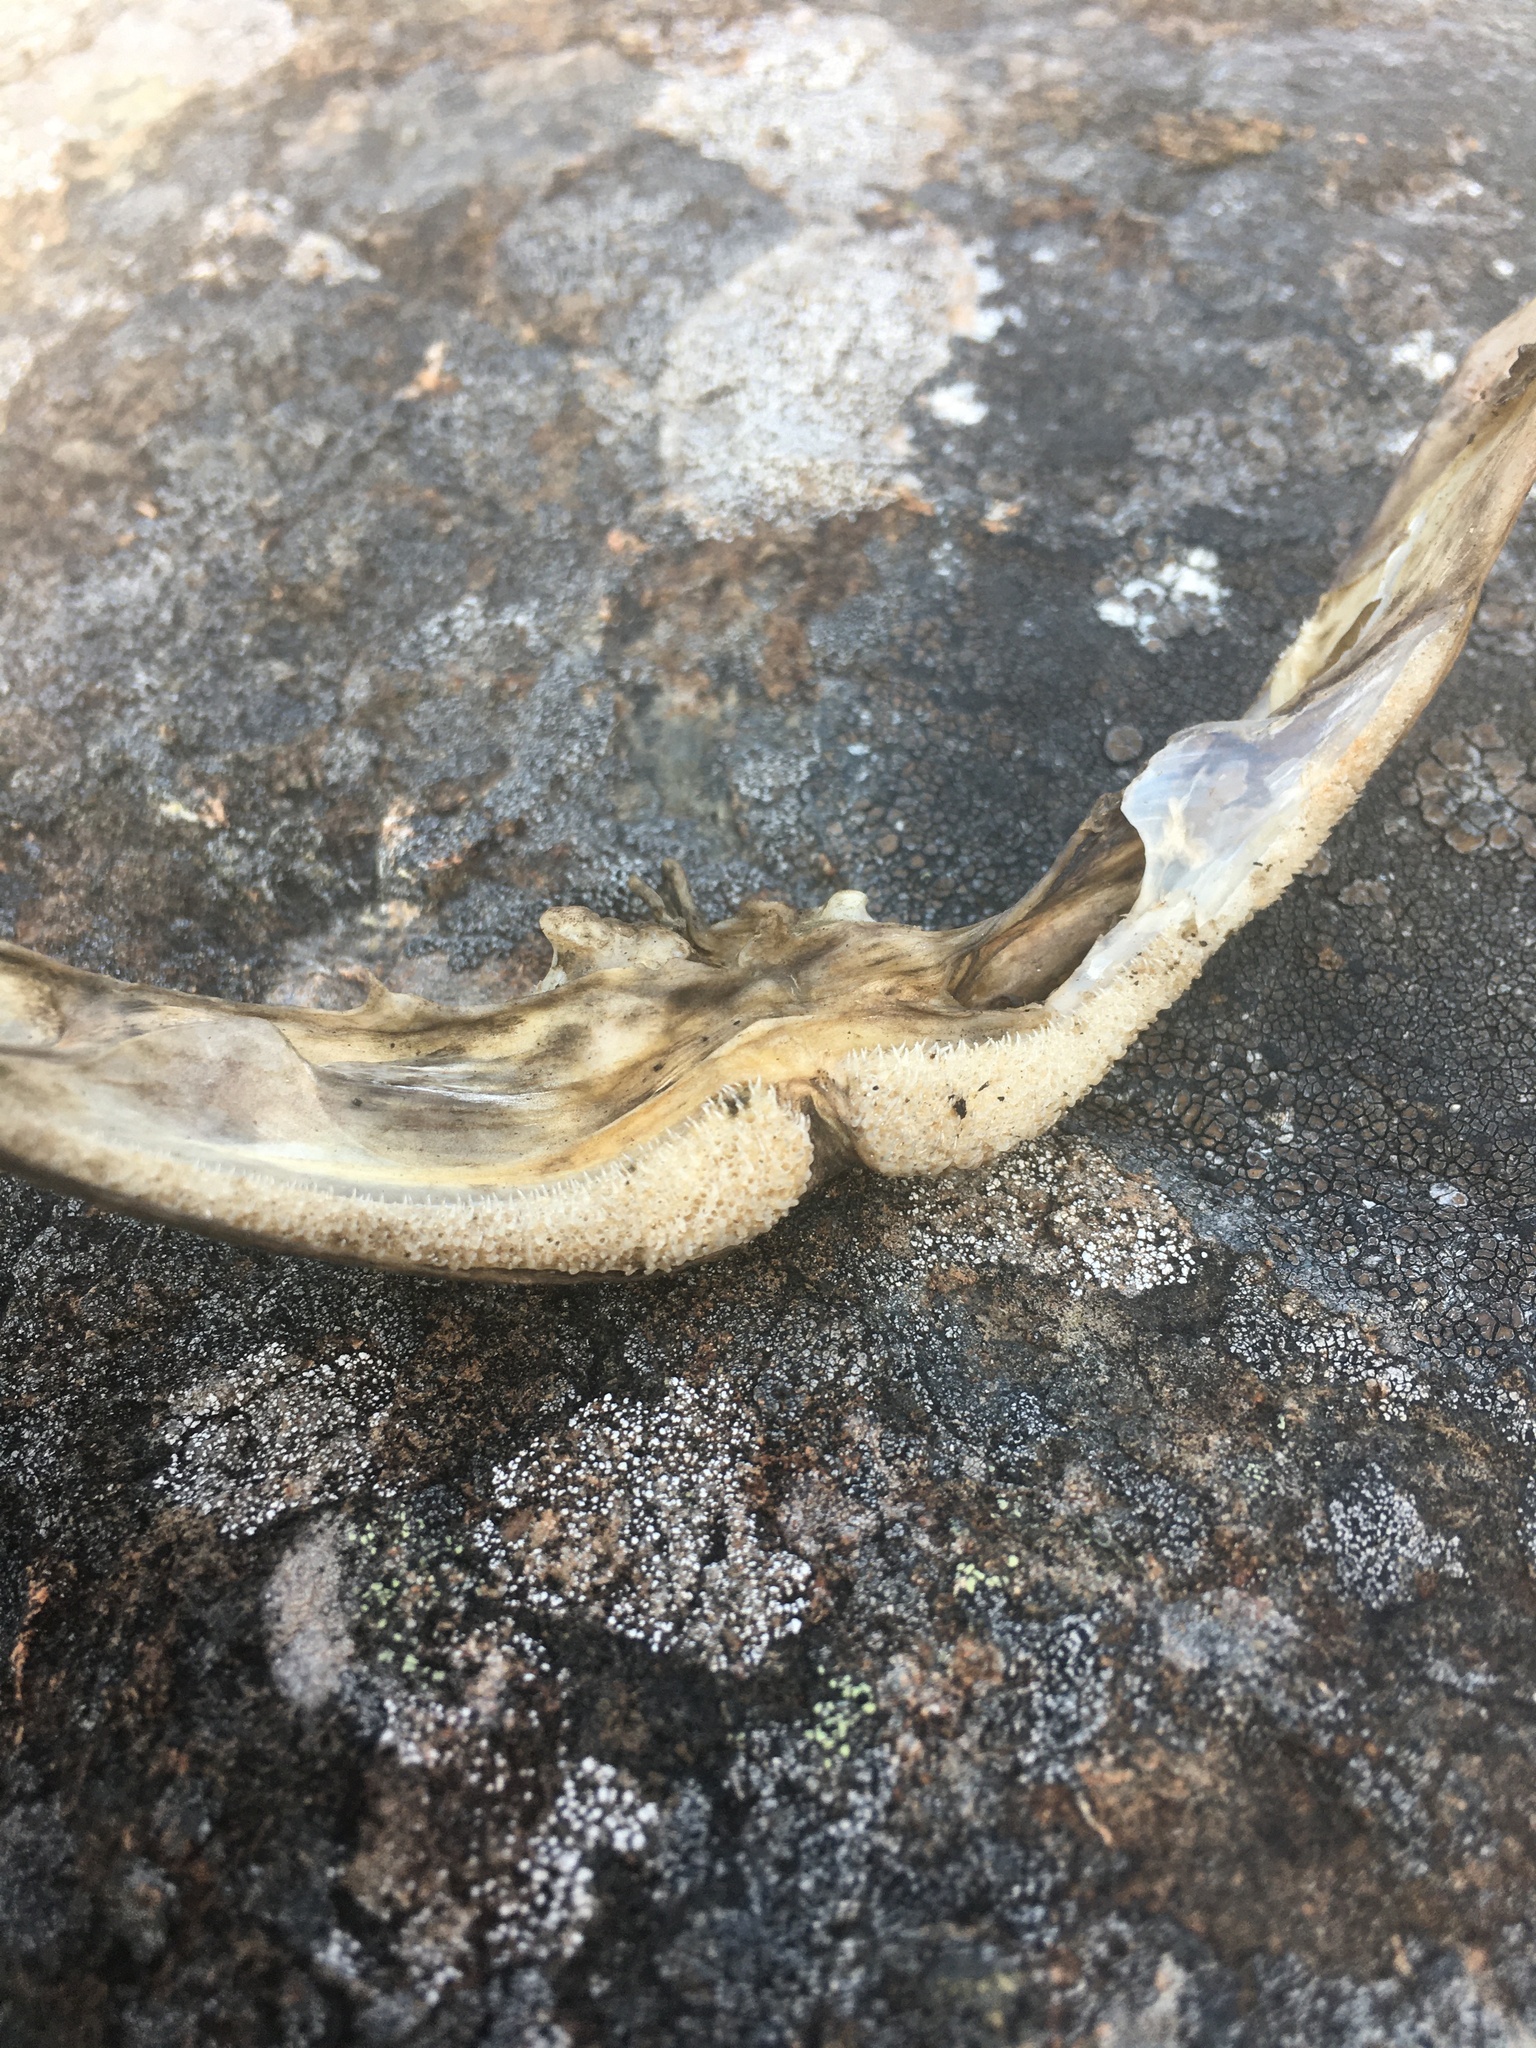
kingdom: Animalia
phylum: Chordata
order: Scorpaeniformes
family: Cottidae
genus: Scorpaenichthys
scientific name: Scorpaenichthys marmoratus
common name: Cabezon
